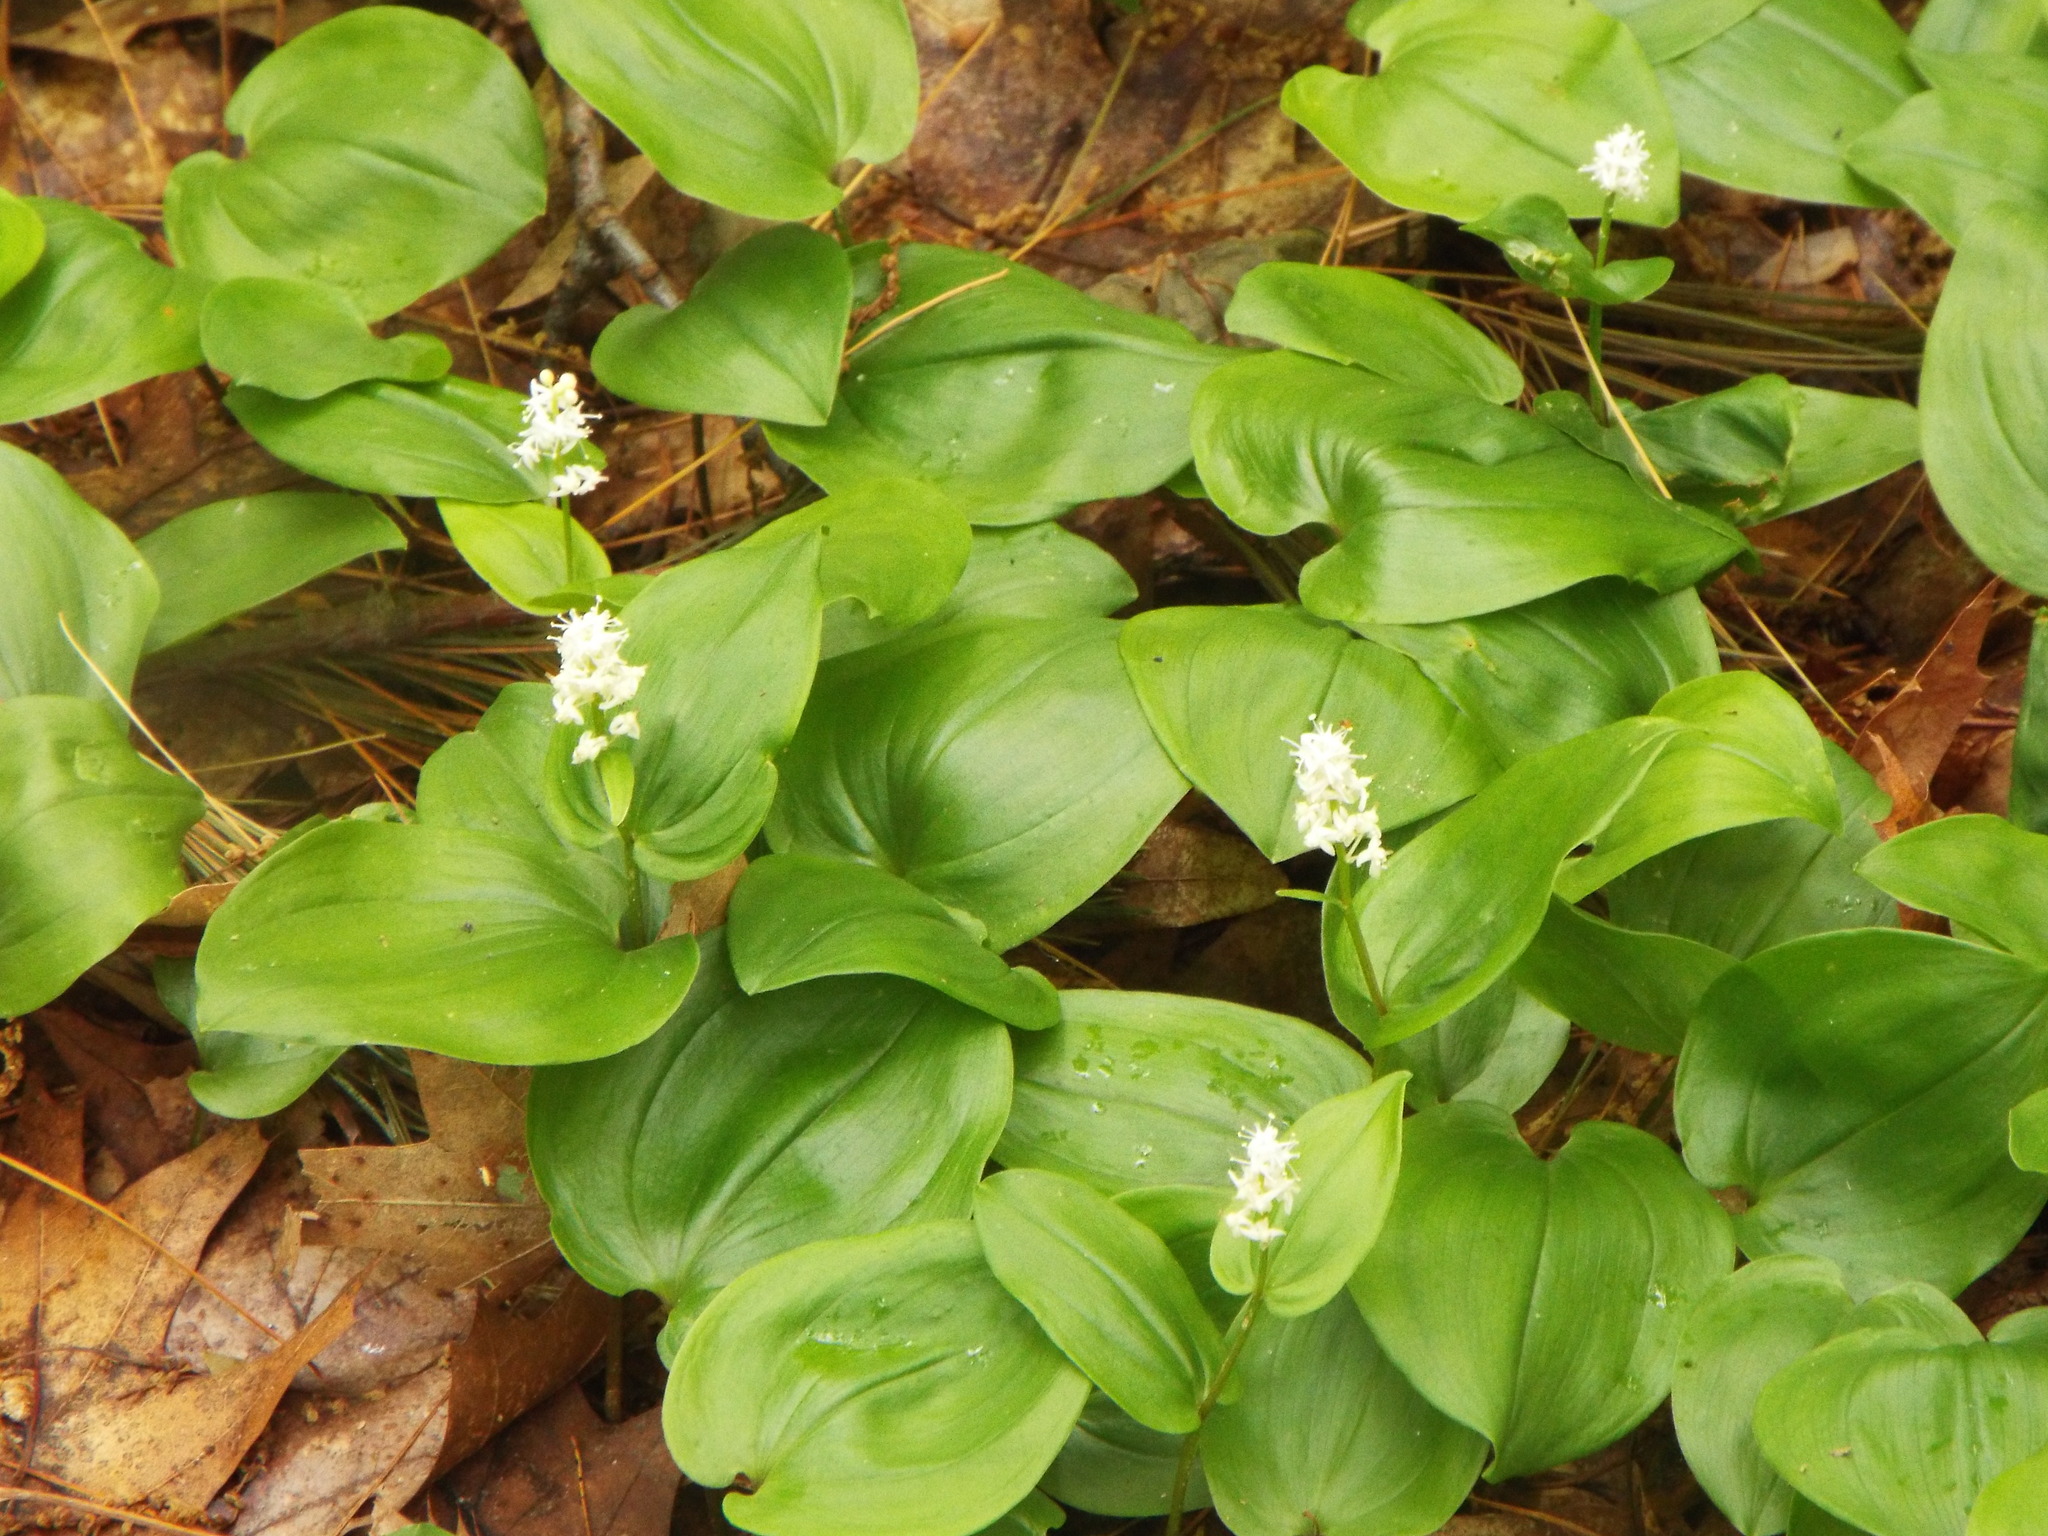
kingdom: Plantae
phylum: Tracheophyta
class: Liliopsida
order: Asparagales
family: Asparagaceae
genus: Maianthemum
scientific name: Maianthemum canadense
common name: False lily-of-the-valley
